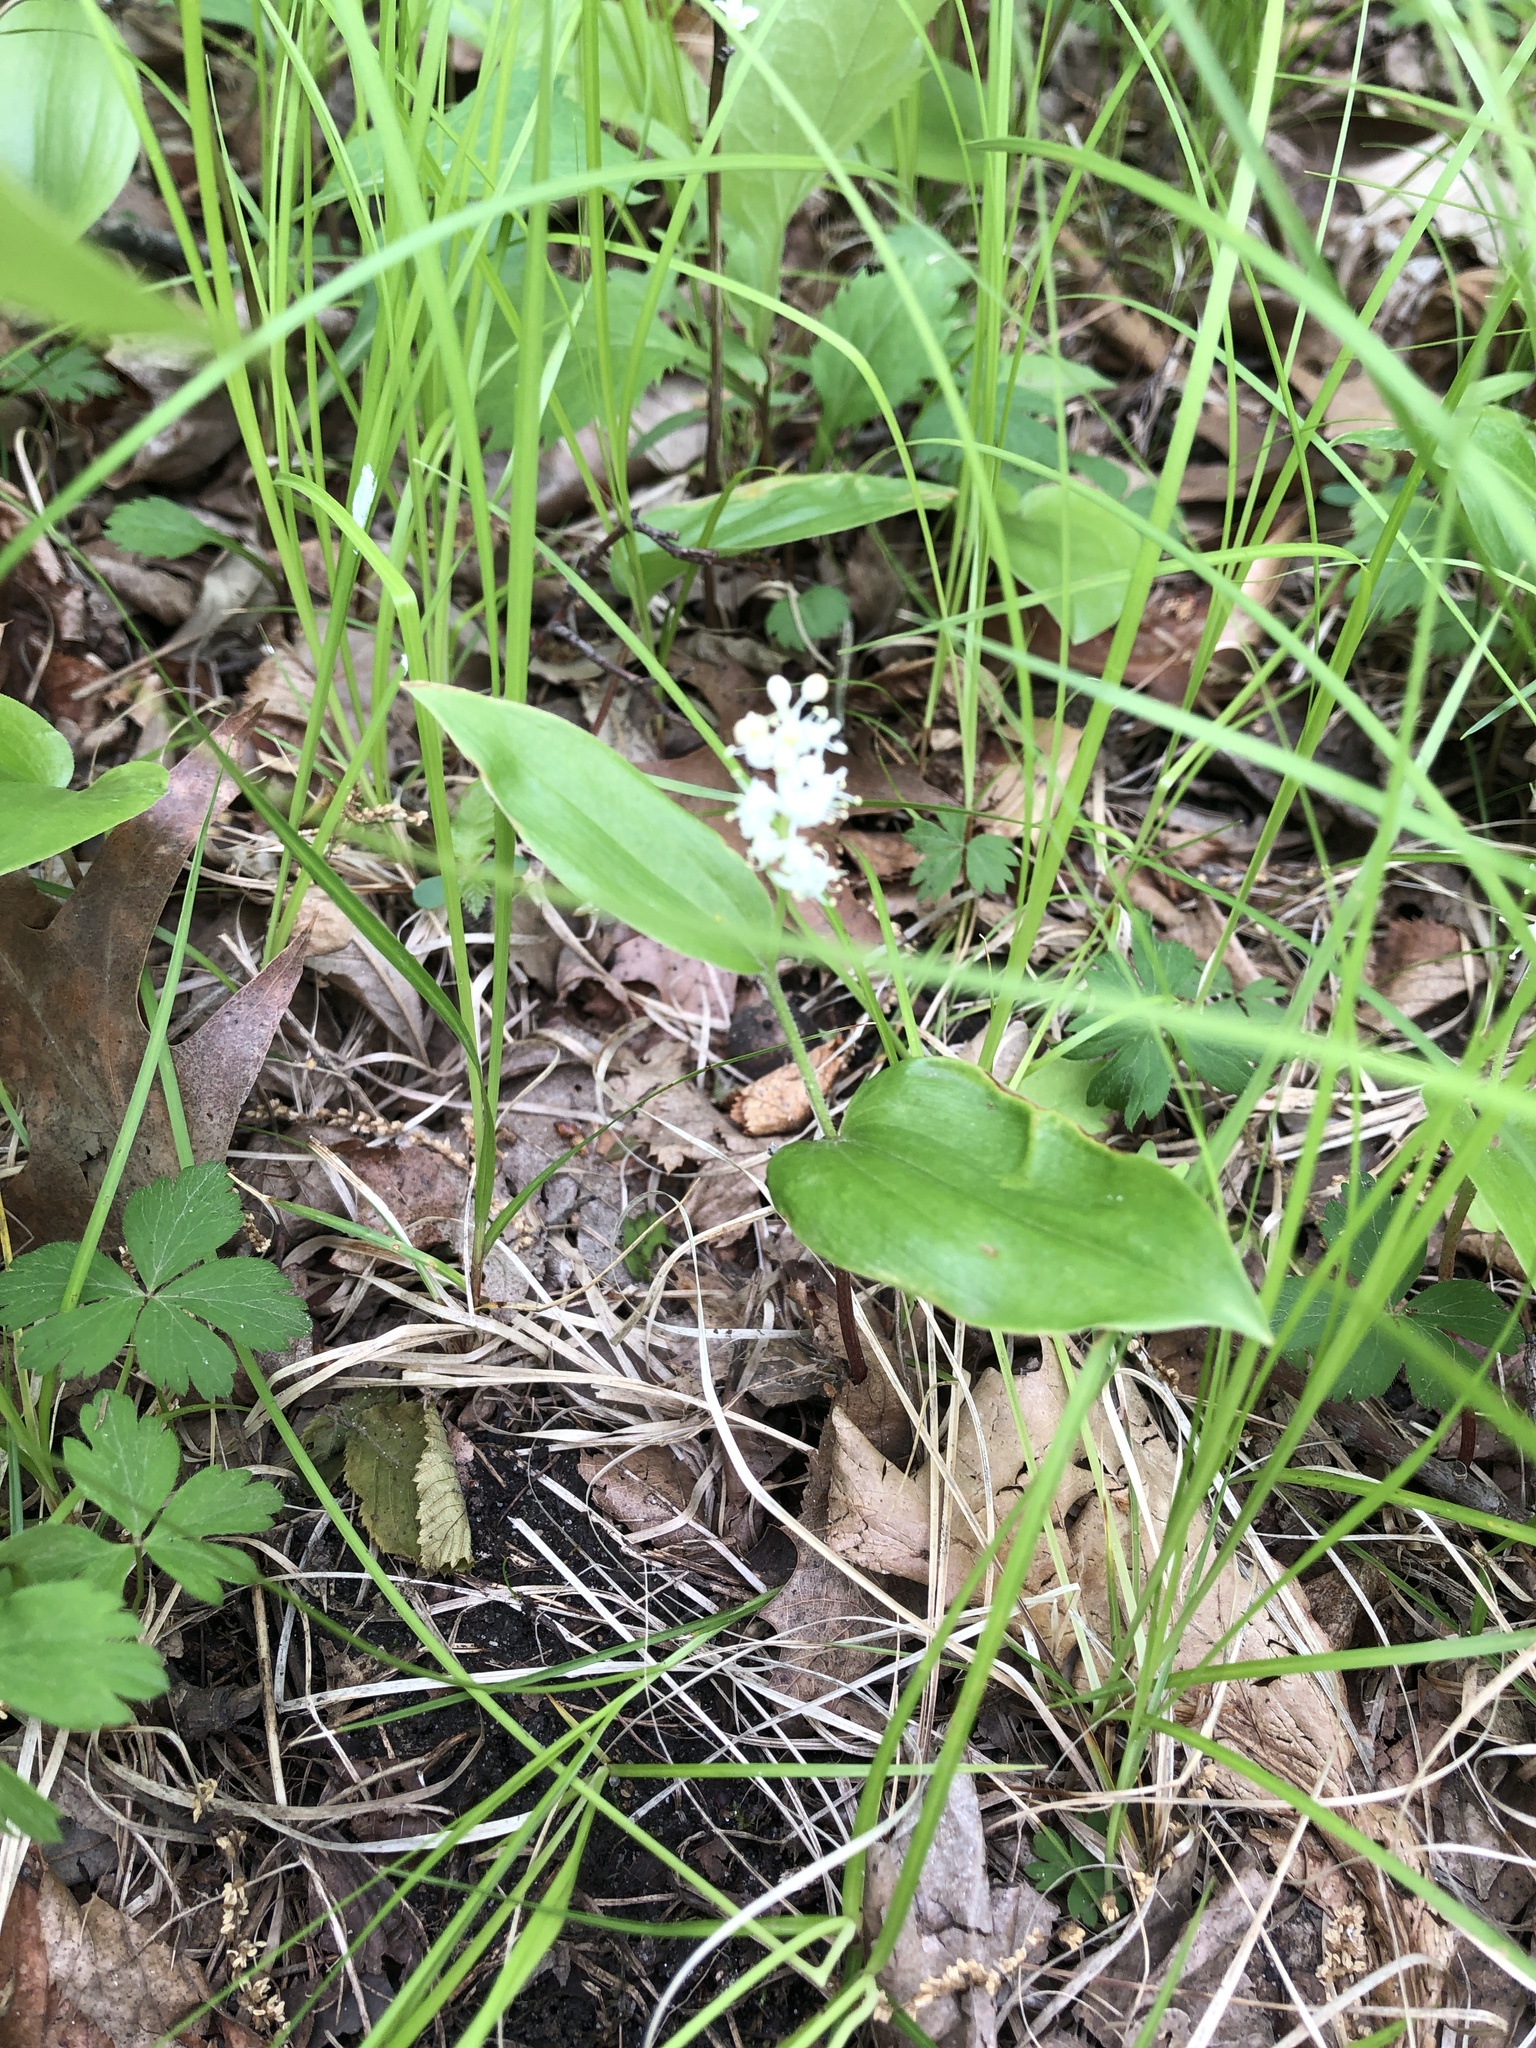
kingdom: Plantae
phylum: Tracheophyta
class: Liliopsida
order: Asparagales
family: Asparagaceae
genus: Maianthemum
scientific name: Maianthemum canadense
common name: False lily-of-the-valley
